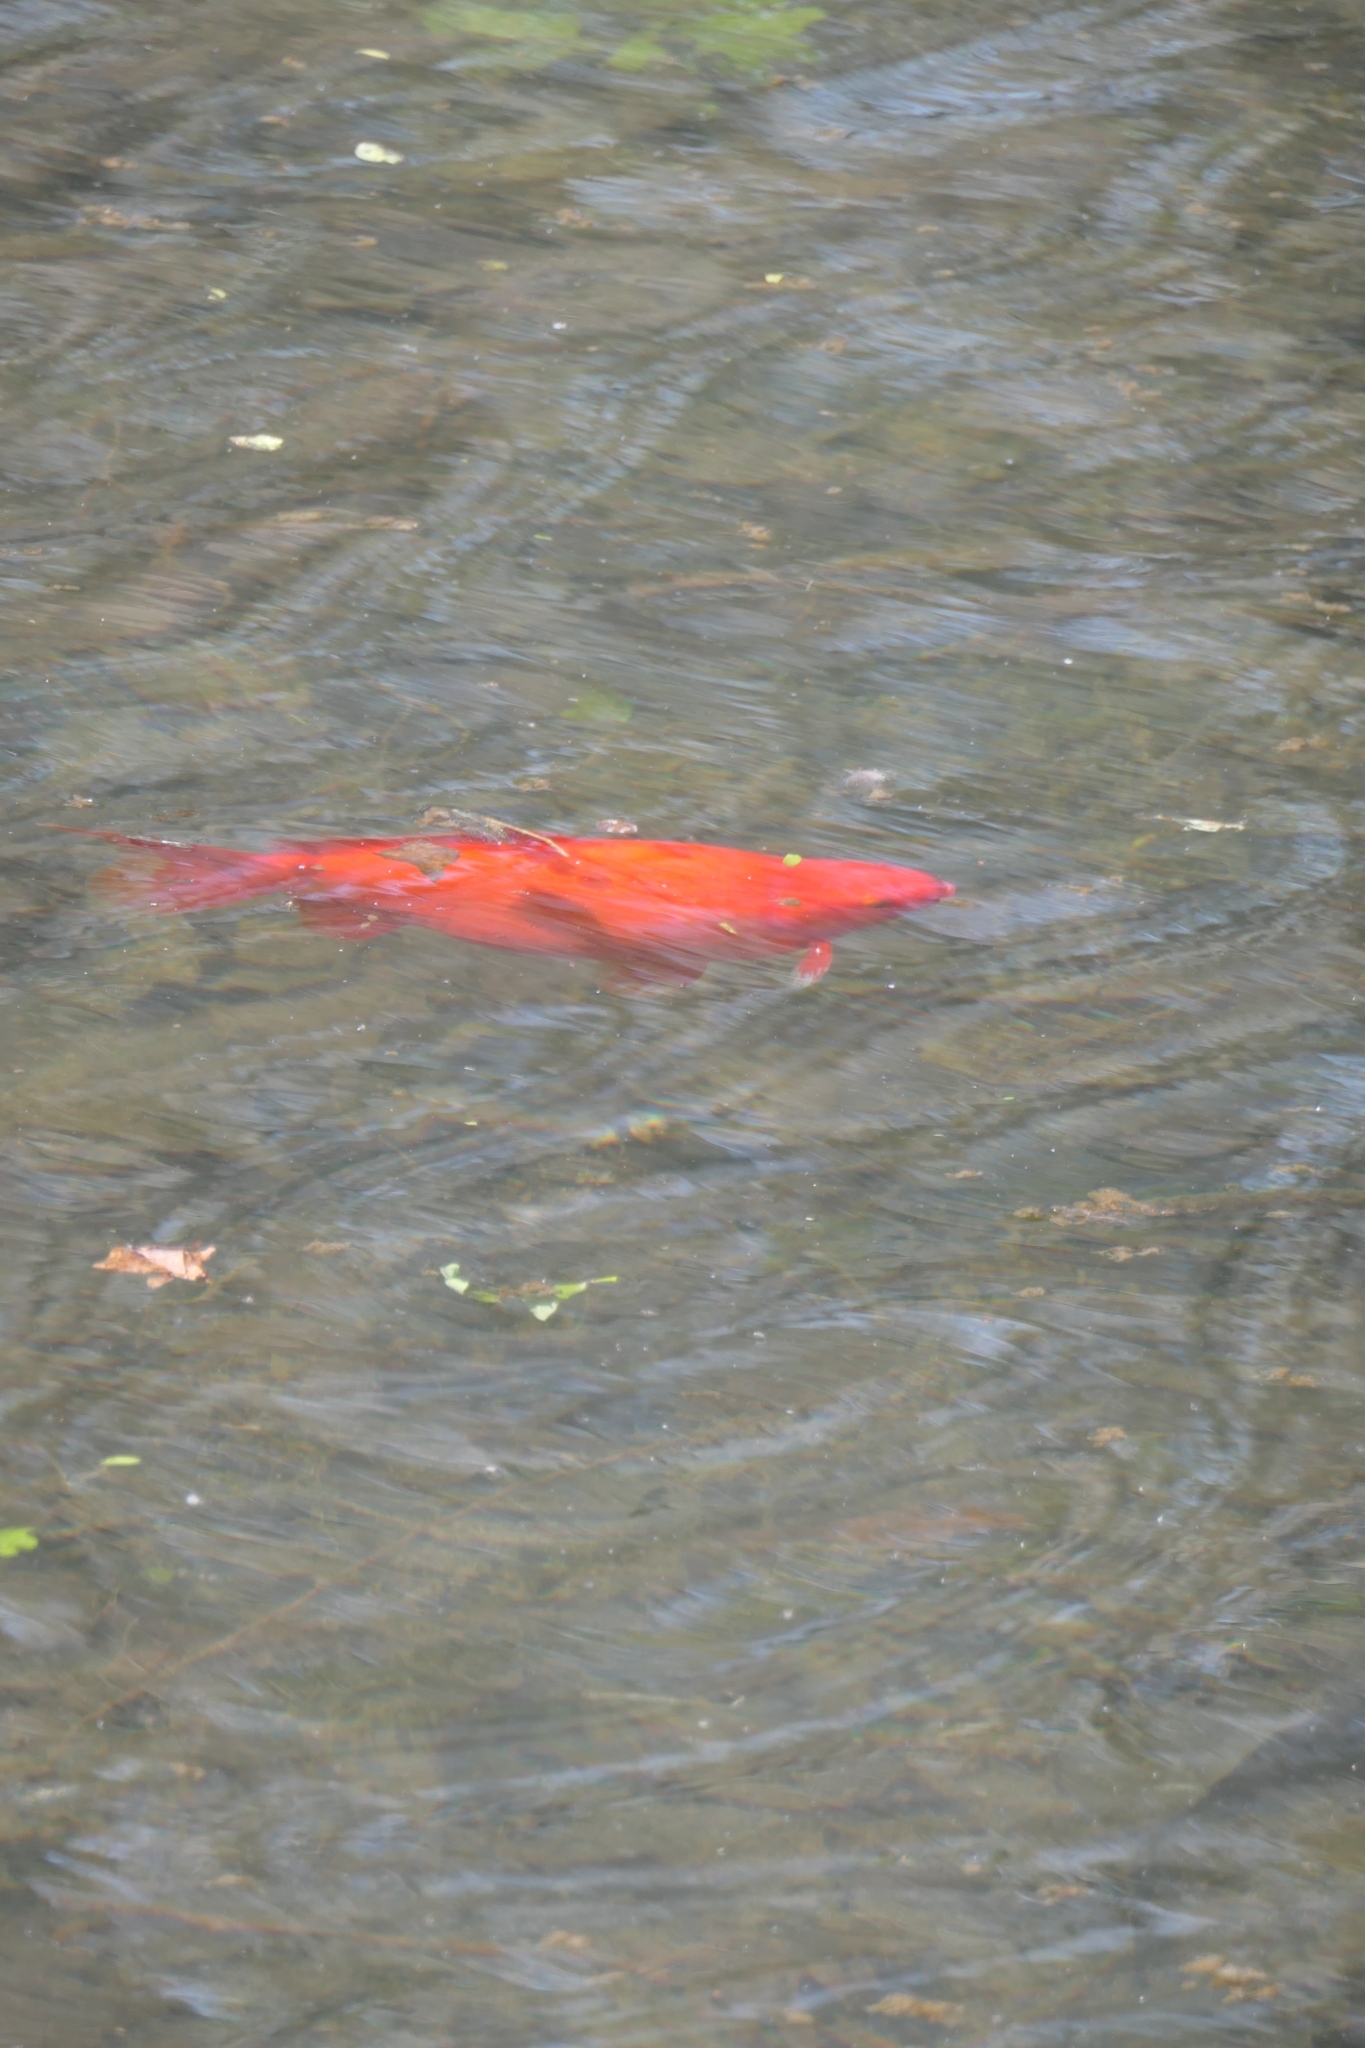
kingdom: Animalia
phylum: Chordata
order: Cypriniformes
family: Cyprinidae
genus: Carassius
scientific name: Carassius auratus
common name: Goldfish
